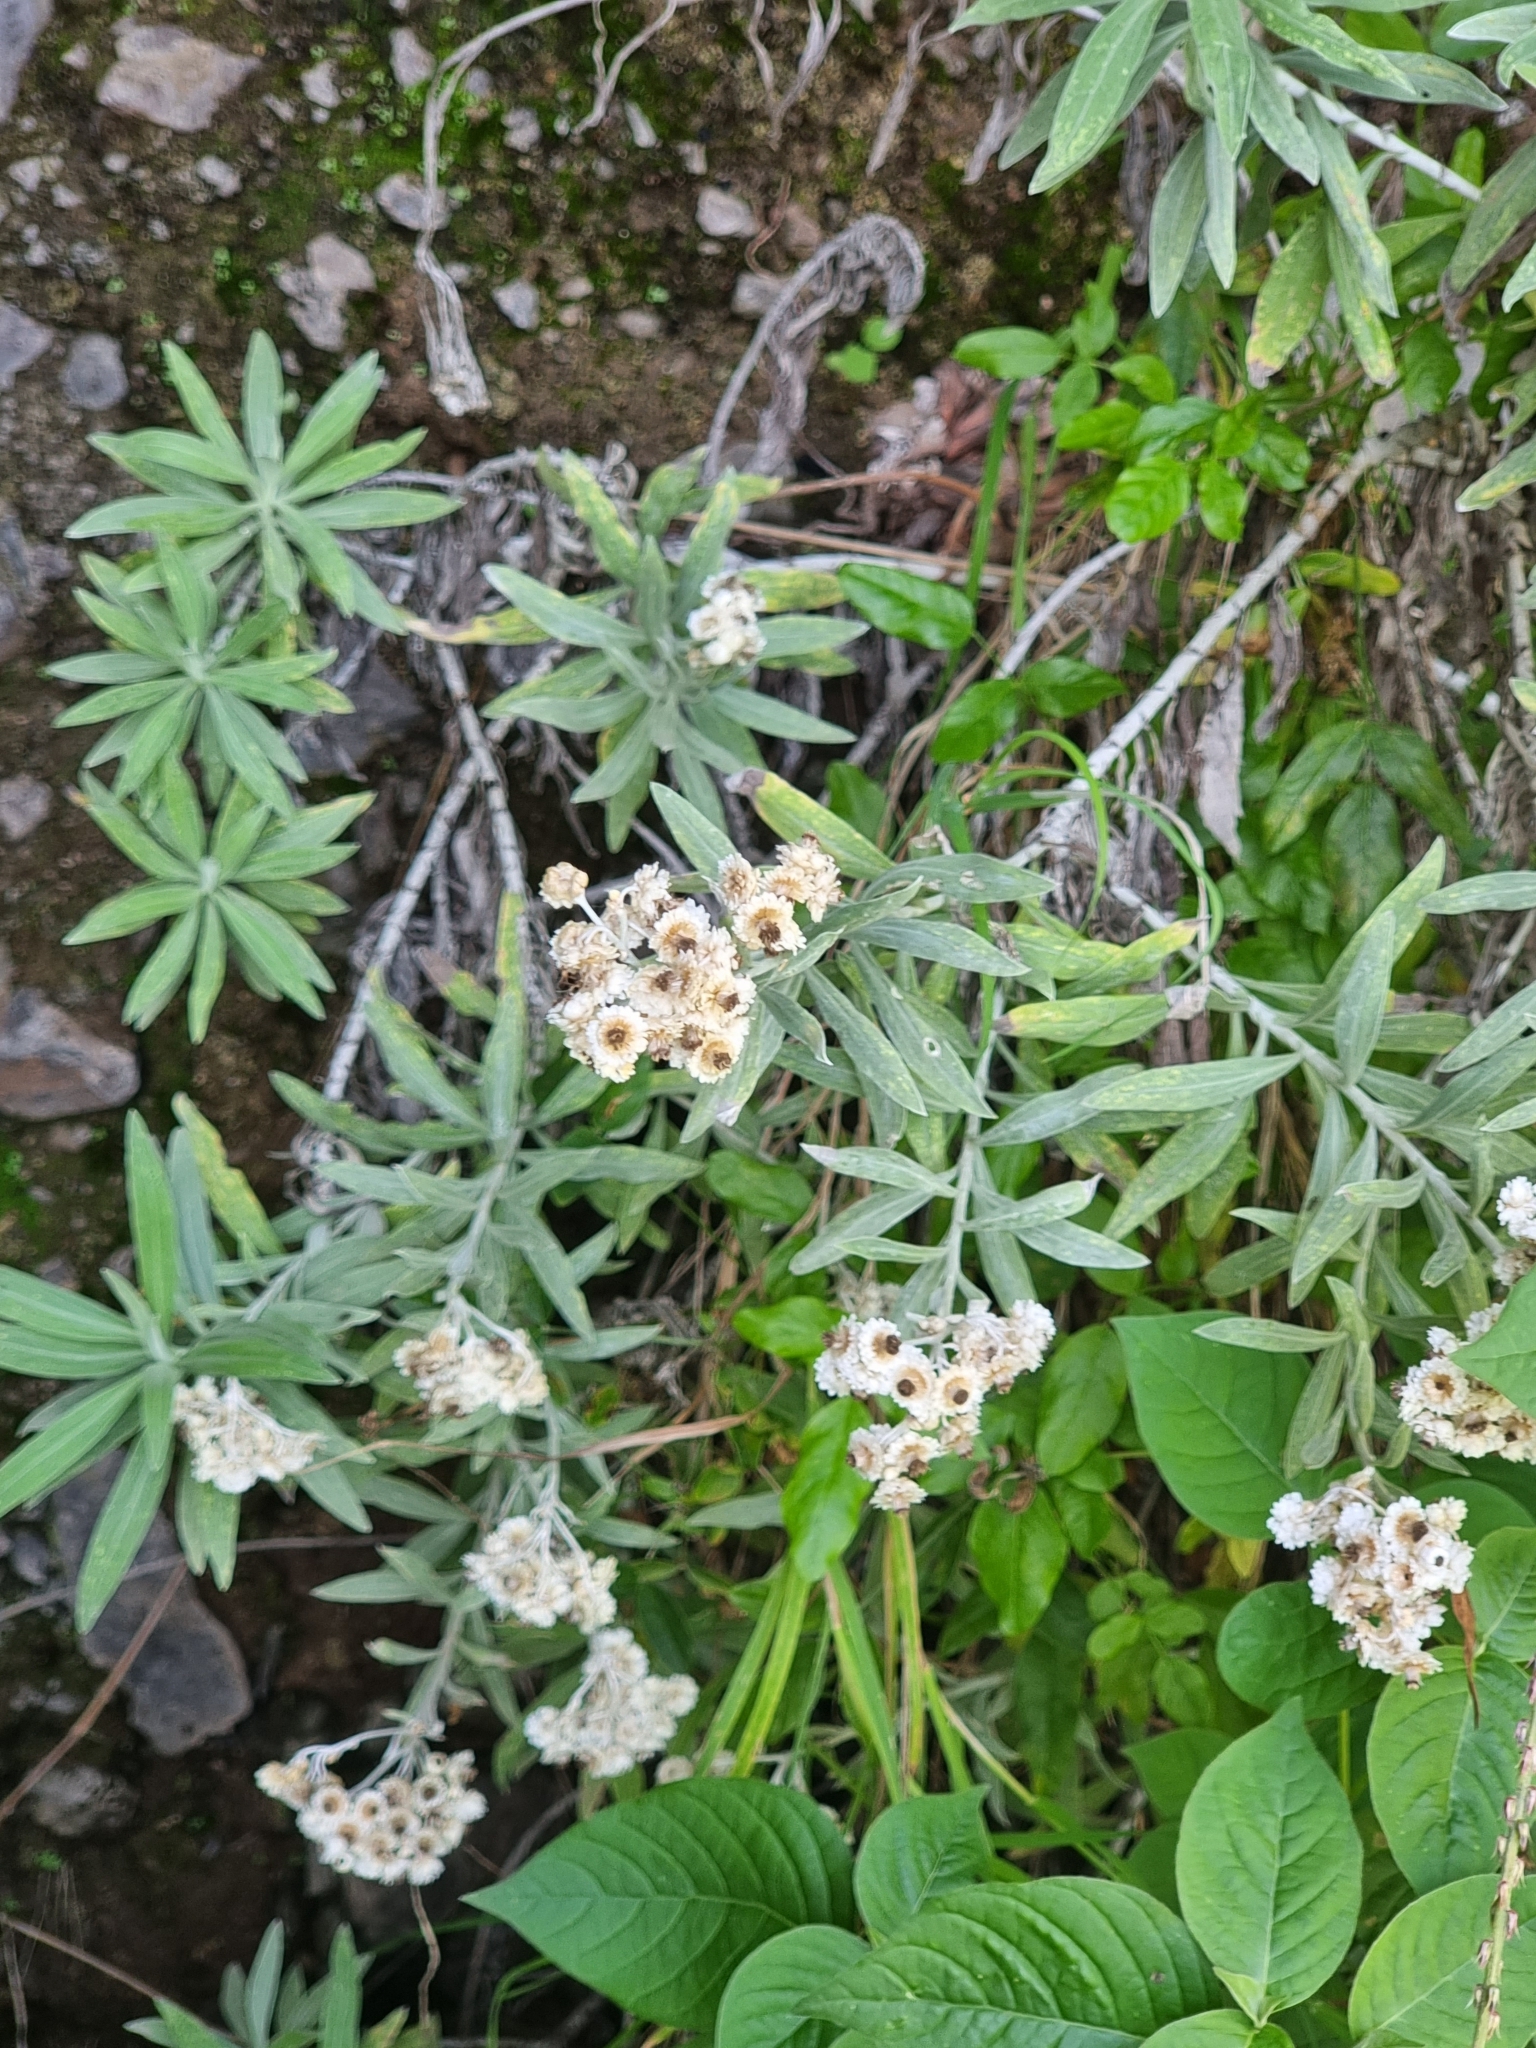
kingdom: Plantae
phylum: Tracheophyta
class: Magnoliopsida
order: Asterales
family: Asteraceae
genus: Helichrysum
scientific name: Helichrysum melaleucum
